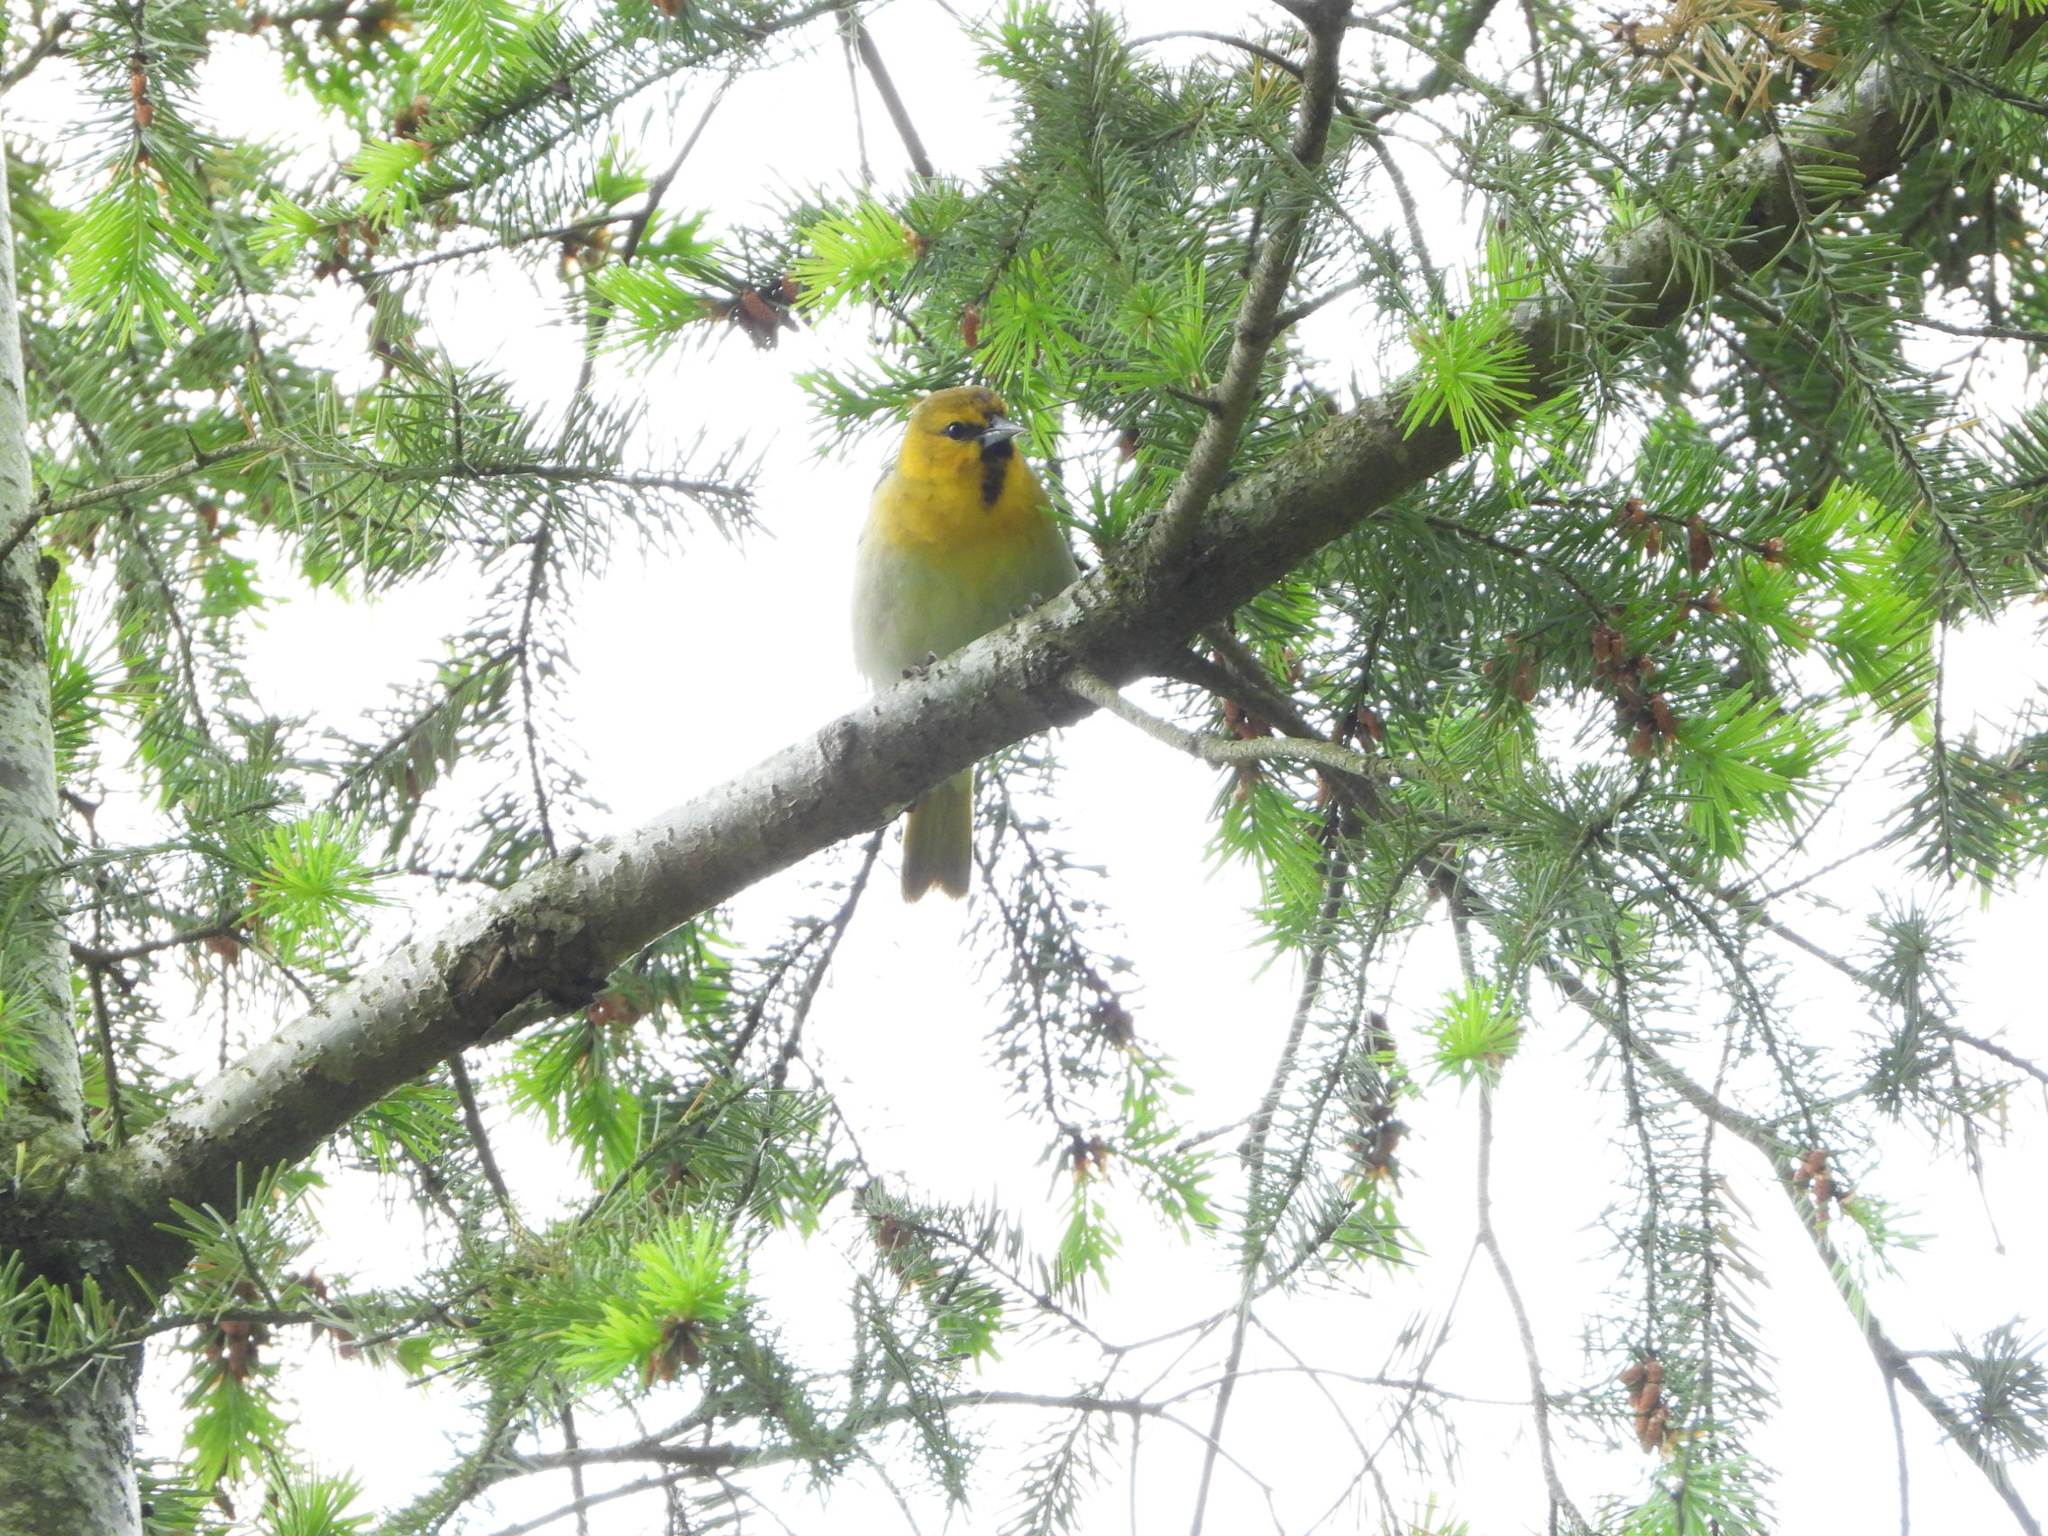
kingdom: Animalia
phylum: Chordata
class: Aves
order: Passeriformes
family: Icteridae
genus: Icterus
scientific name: Icterus bullockii
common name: Bullock's oriole
